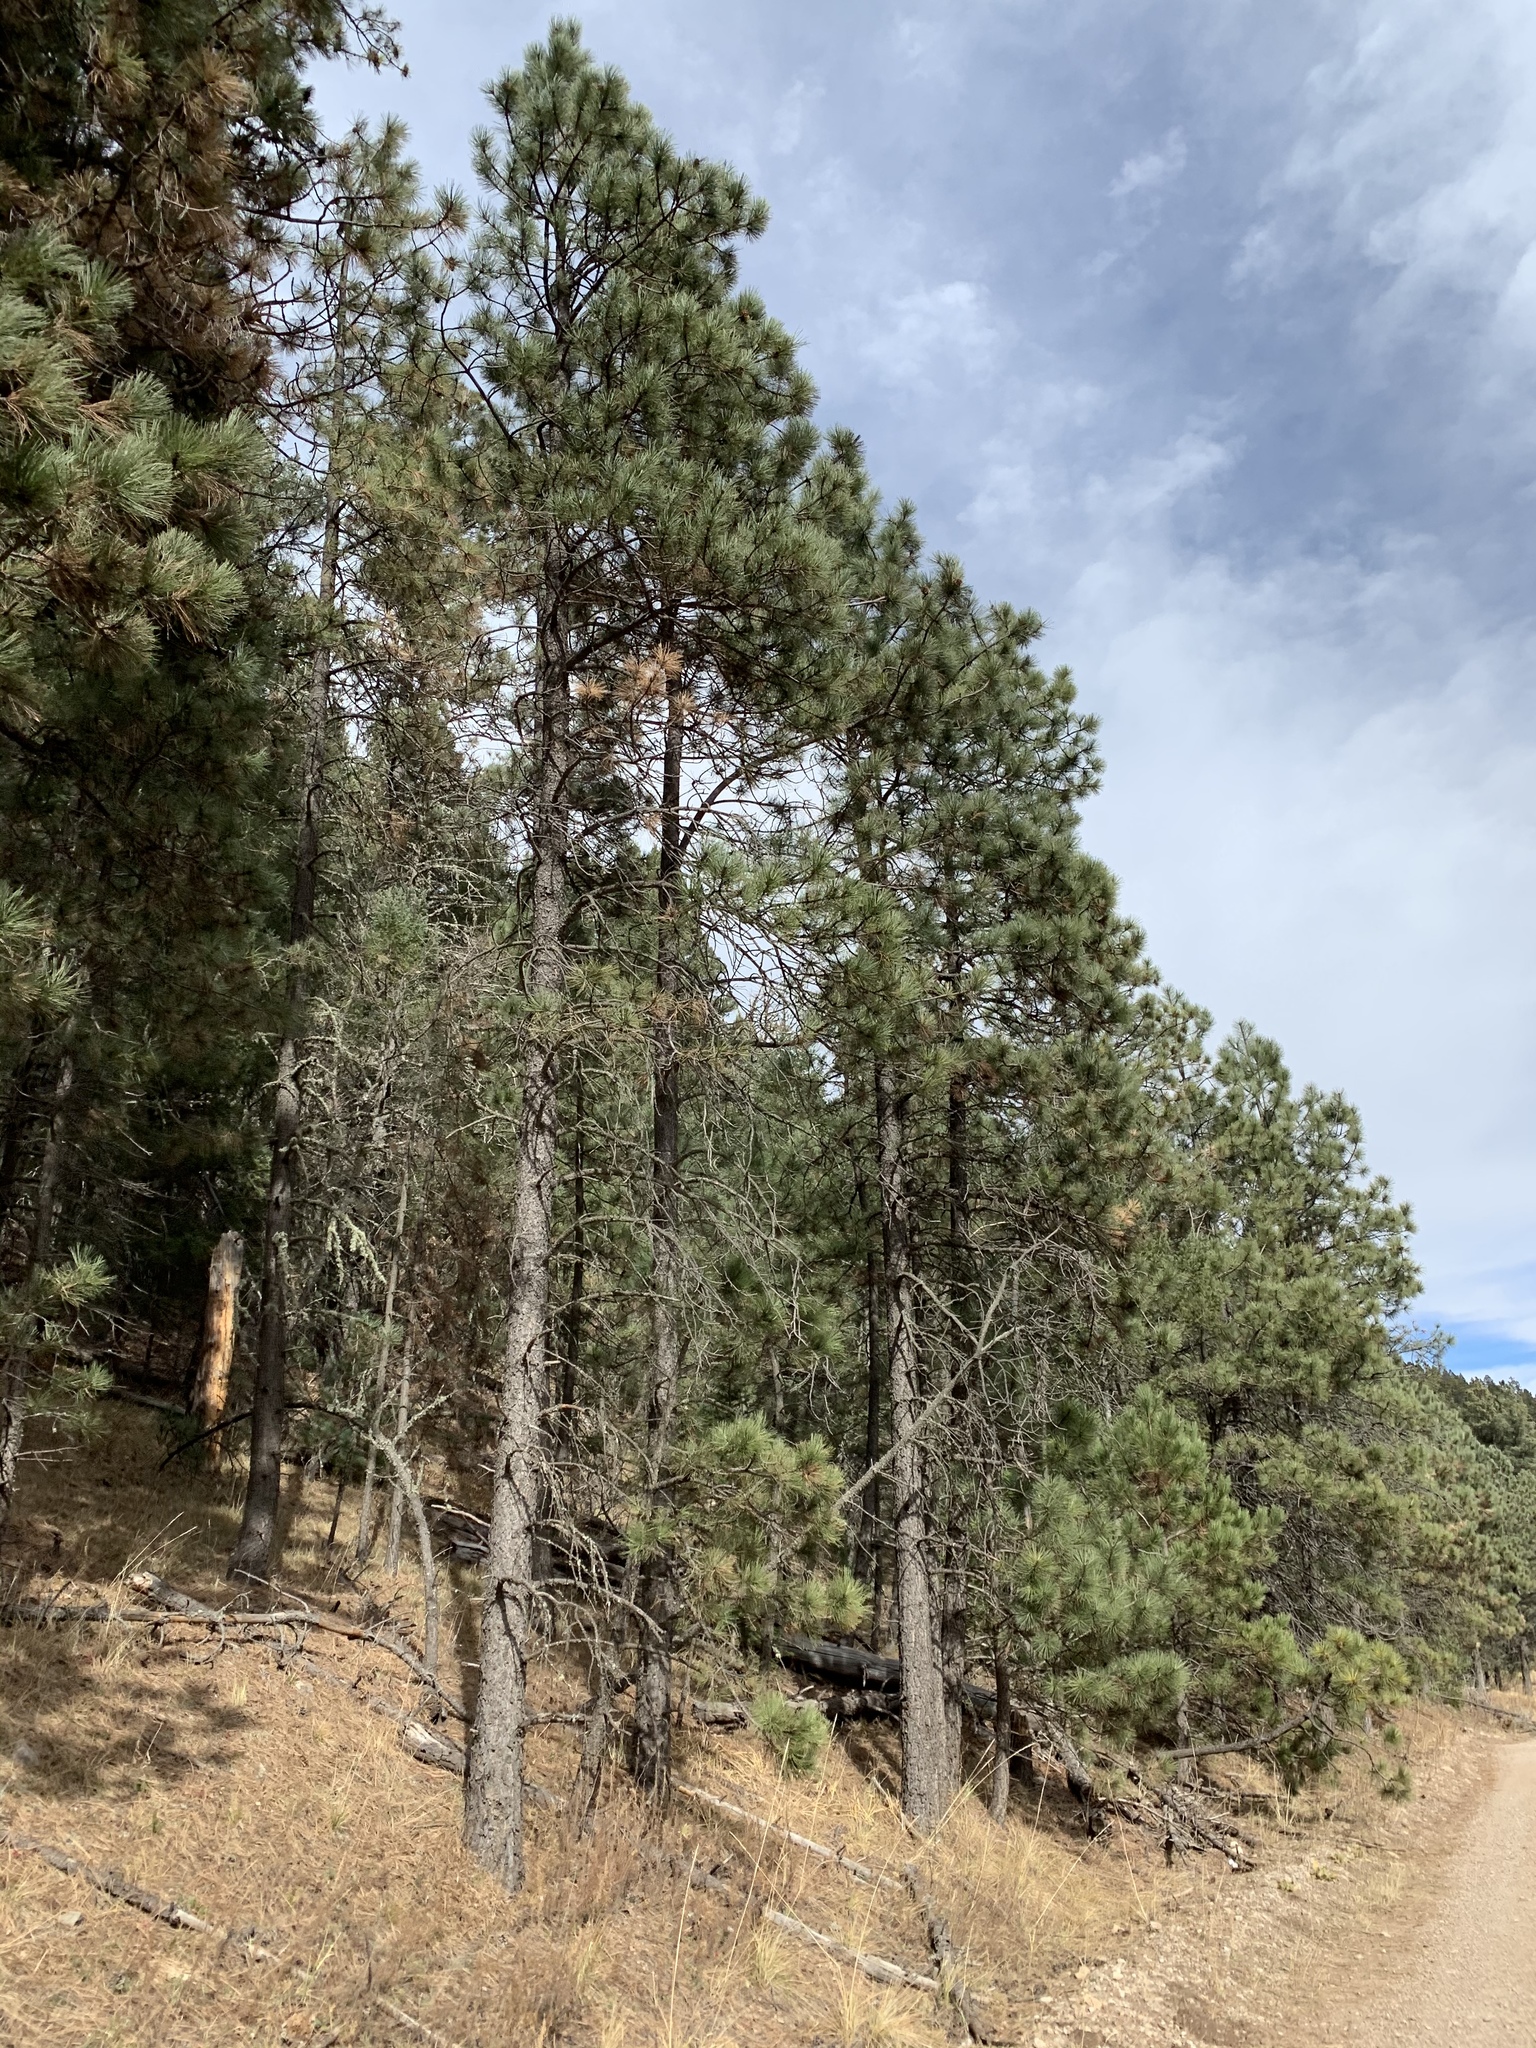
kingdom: Plantae
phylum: Tracheophyta
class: Pinopsida
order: Pinales
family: Pinaceae
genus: Pinus
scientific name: Pinus ponderosa
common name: Western yellow-pine
